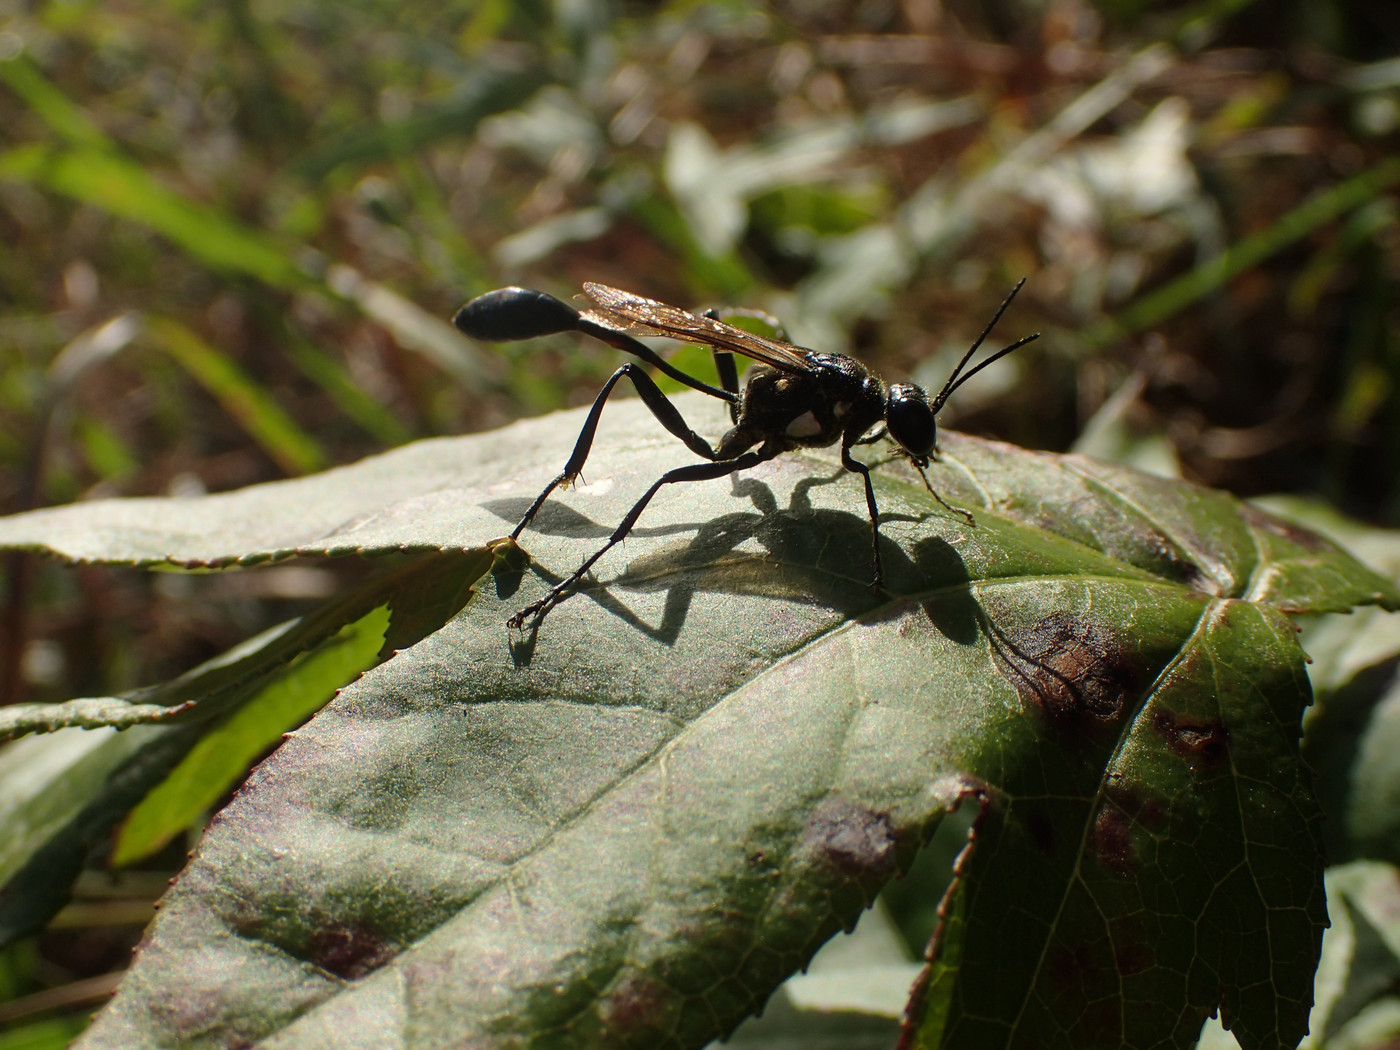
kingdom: Animalia
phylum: Arthropoda
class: Insecta
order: Hymenoptera
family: Sphecidae
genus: Eremnophila
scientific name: Eremnophila aureonotata
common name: Gold-marked thread-waisted wasp
